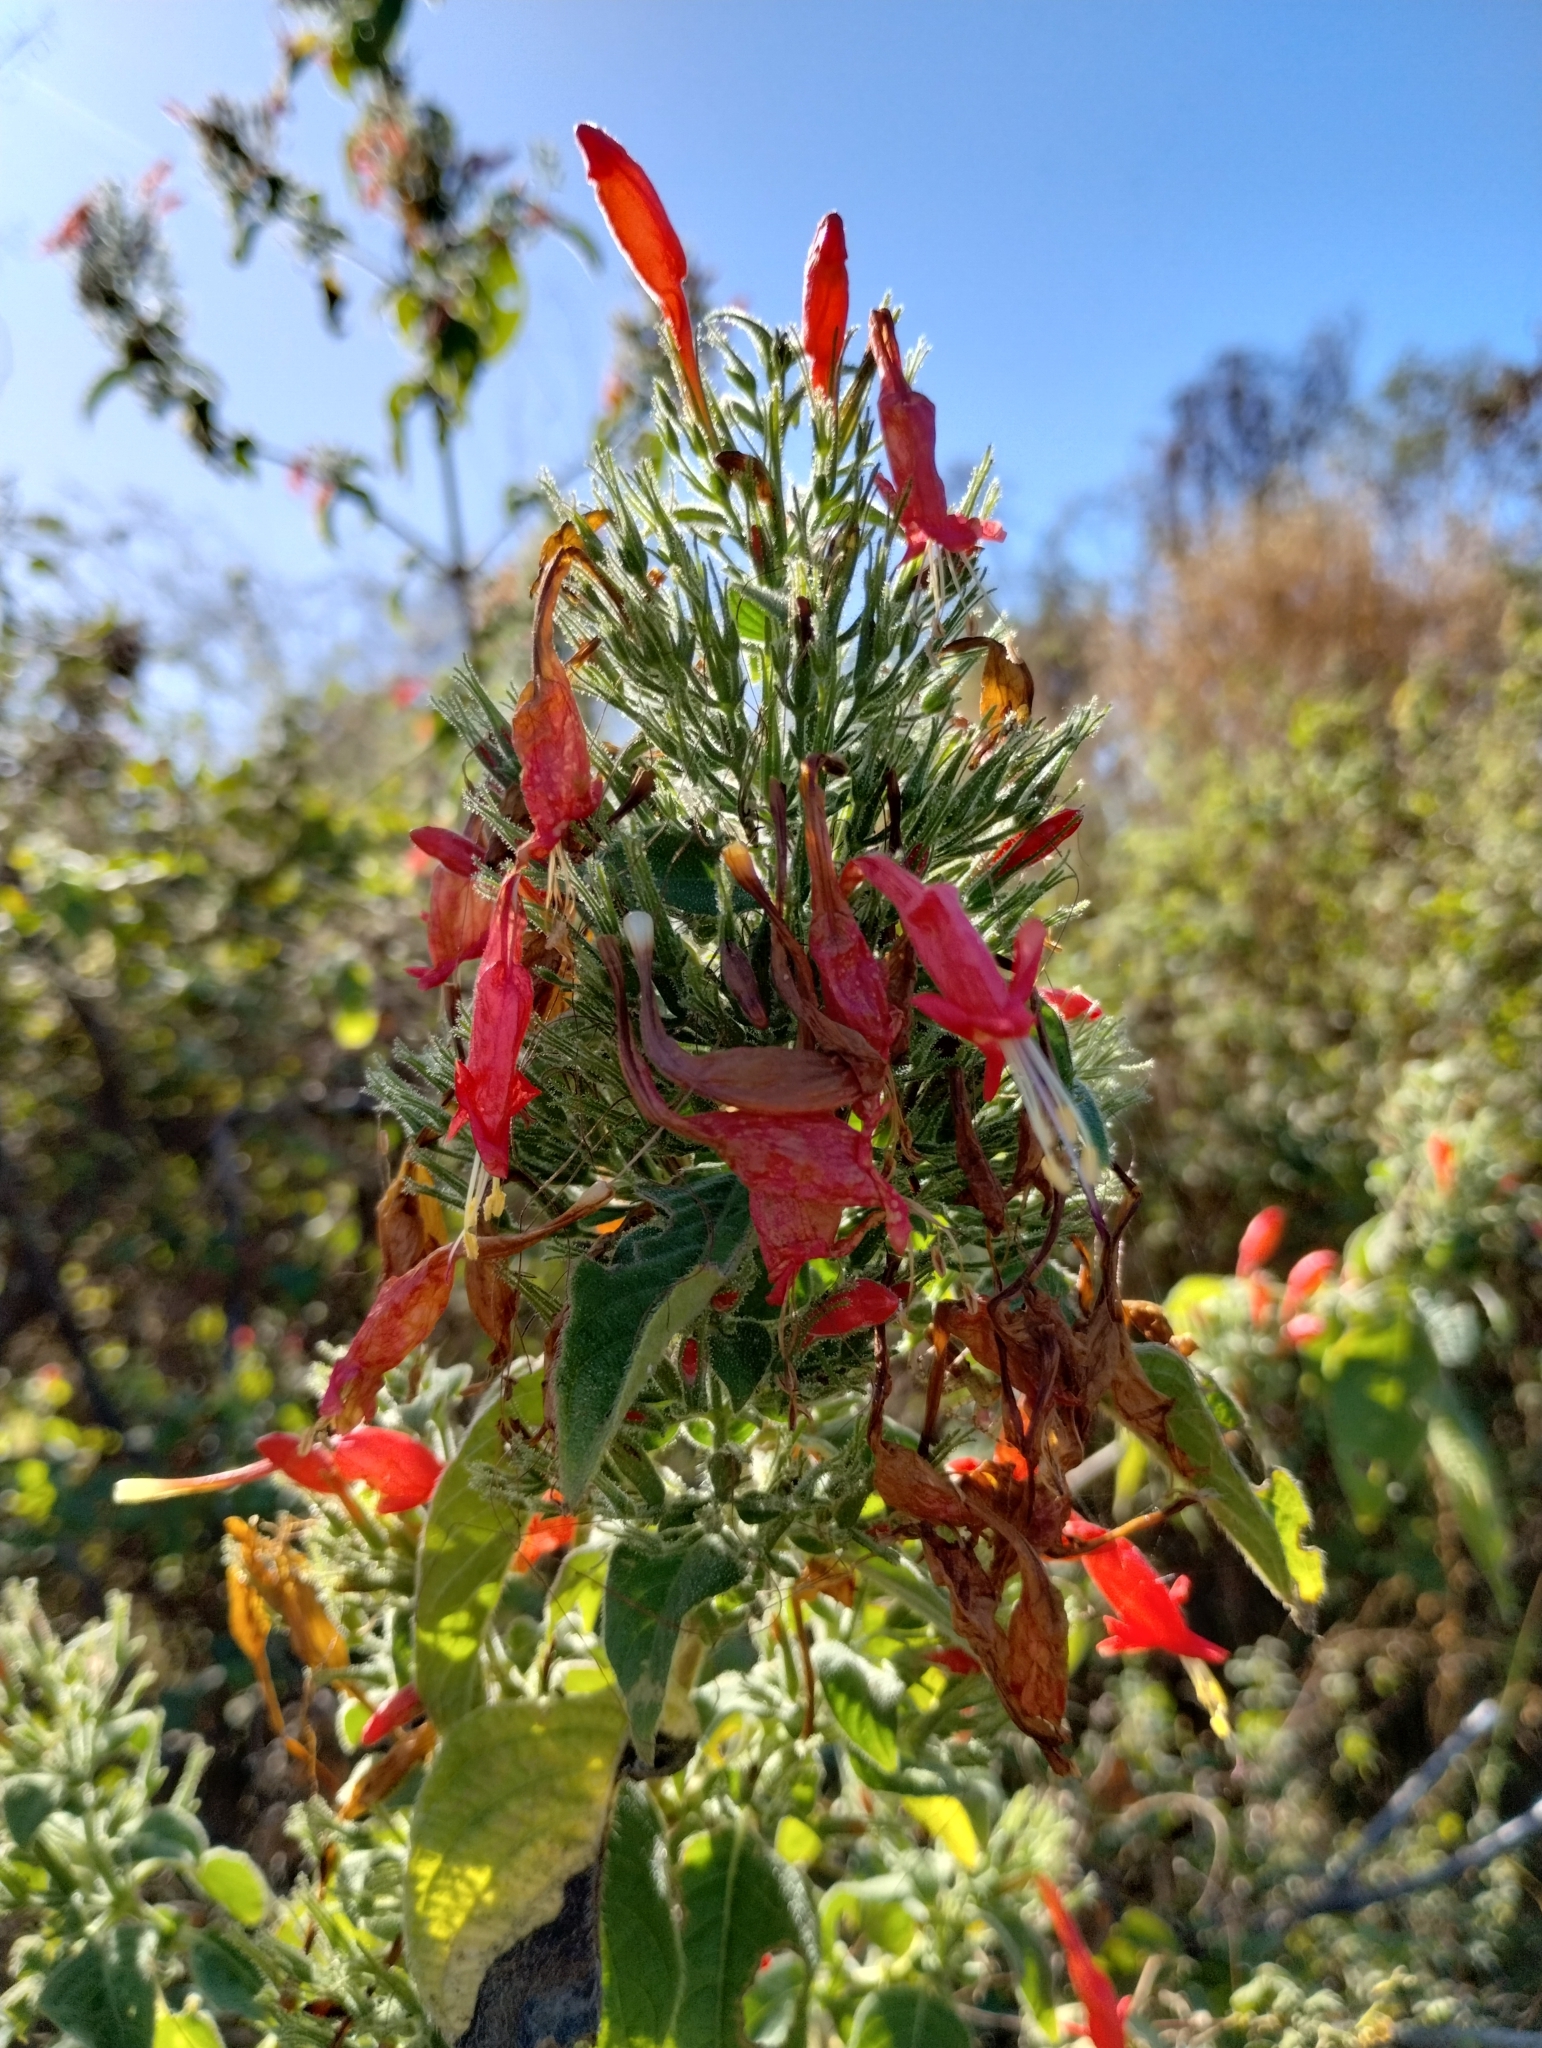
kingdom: Plantae
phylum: Tracheophyta
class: Magnoliopsida
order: Lamiales
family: Acanthaceae
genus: Ruellia
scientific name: Ruellia asperula
